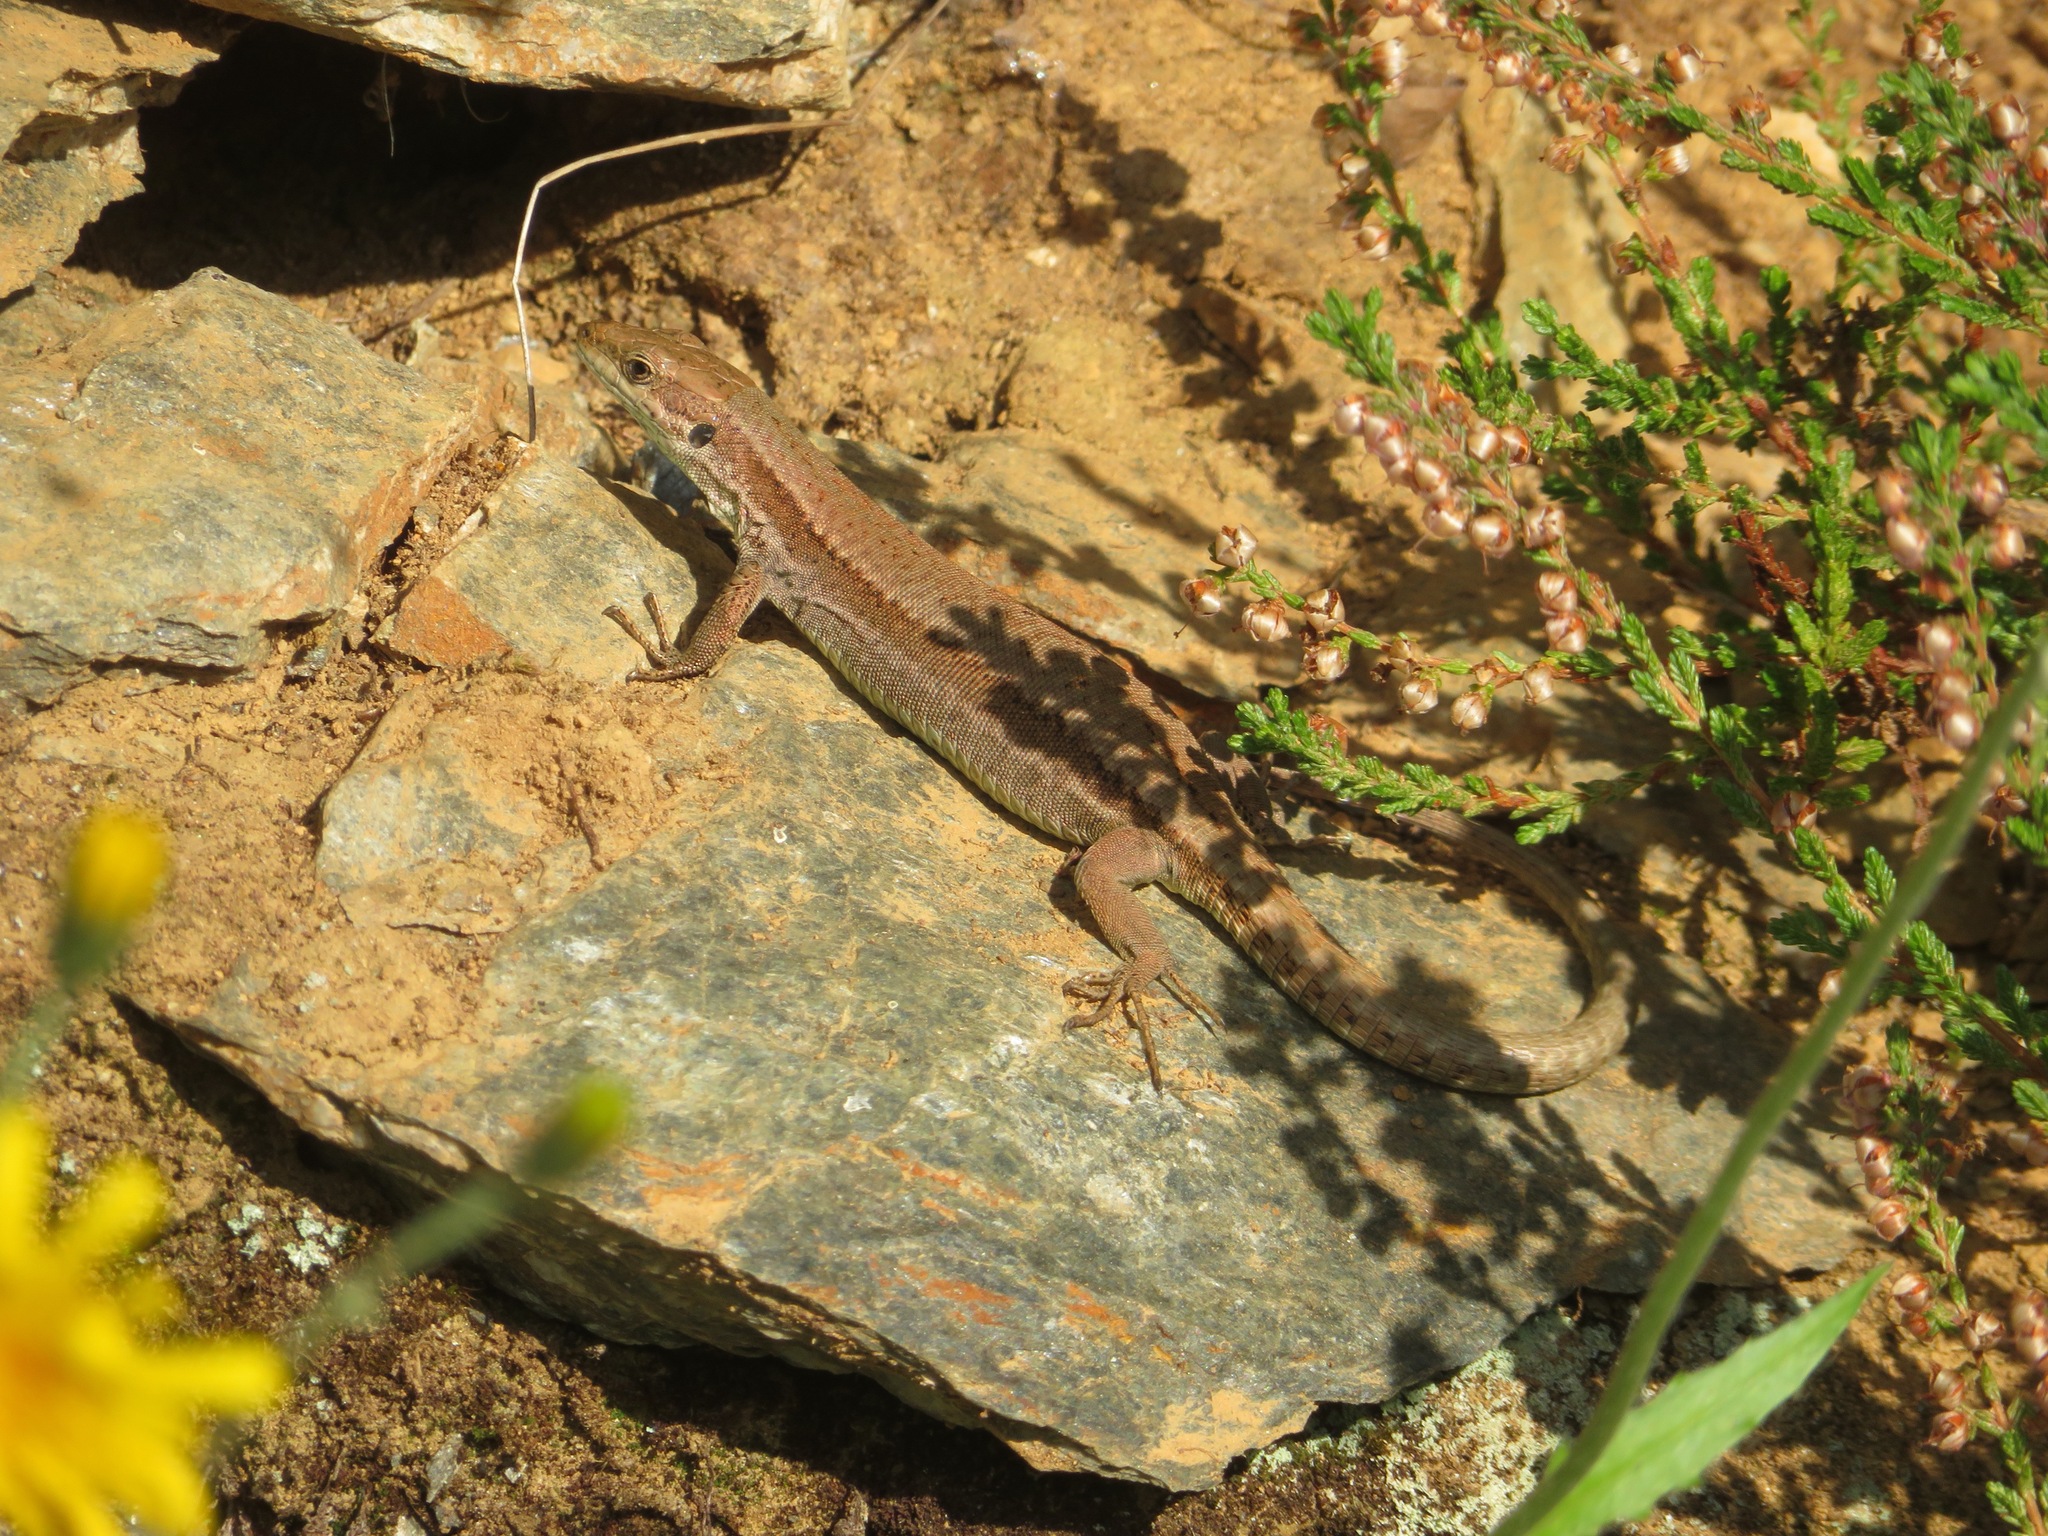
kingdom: Animalia
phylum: Chordata
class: Squamata
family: Lacertidae
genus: Podarcis
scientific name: Podarcis muralis
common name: Common wall lizard
